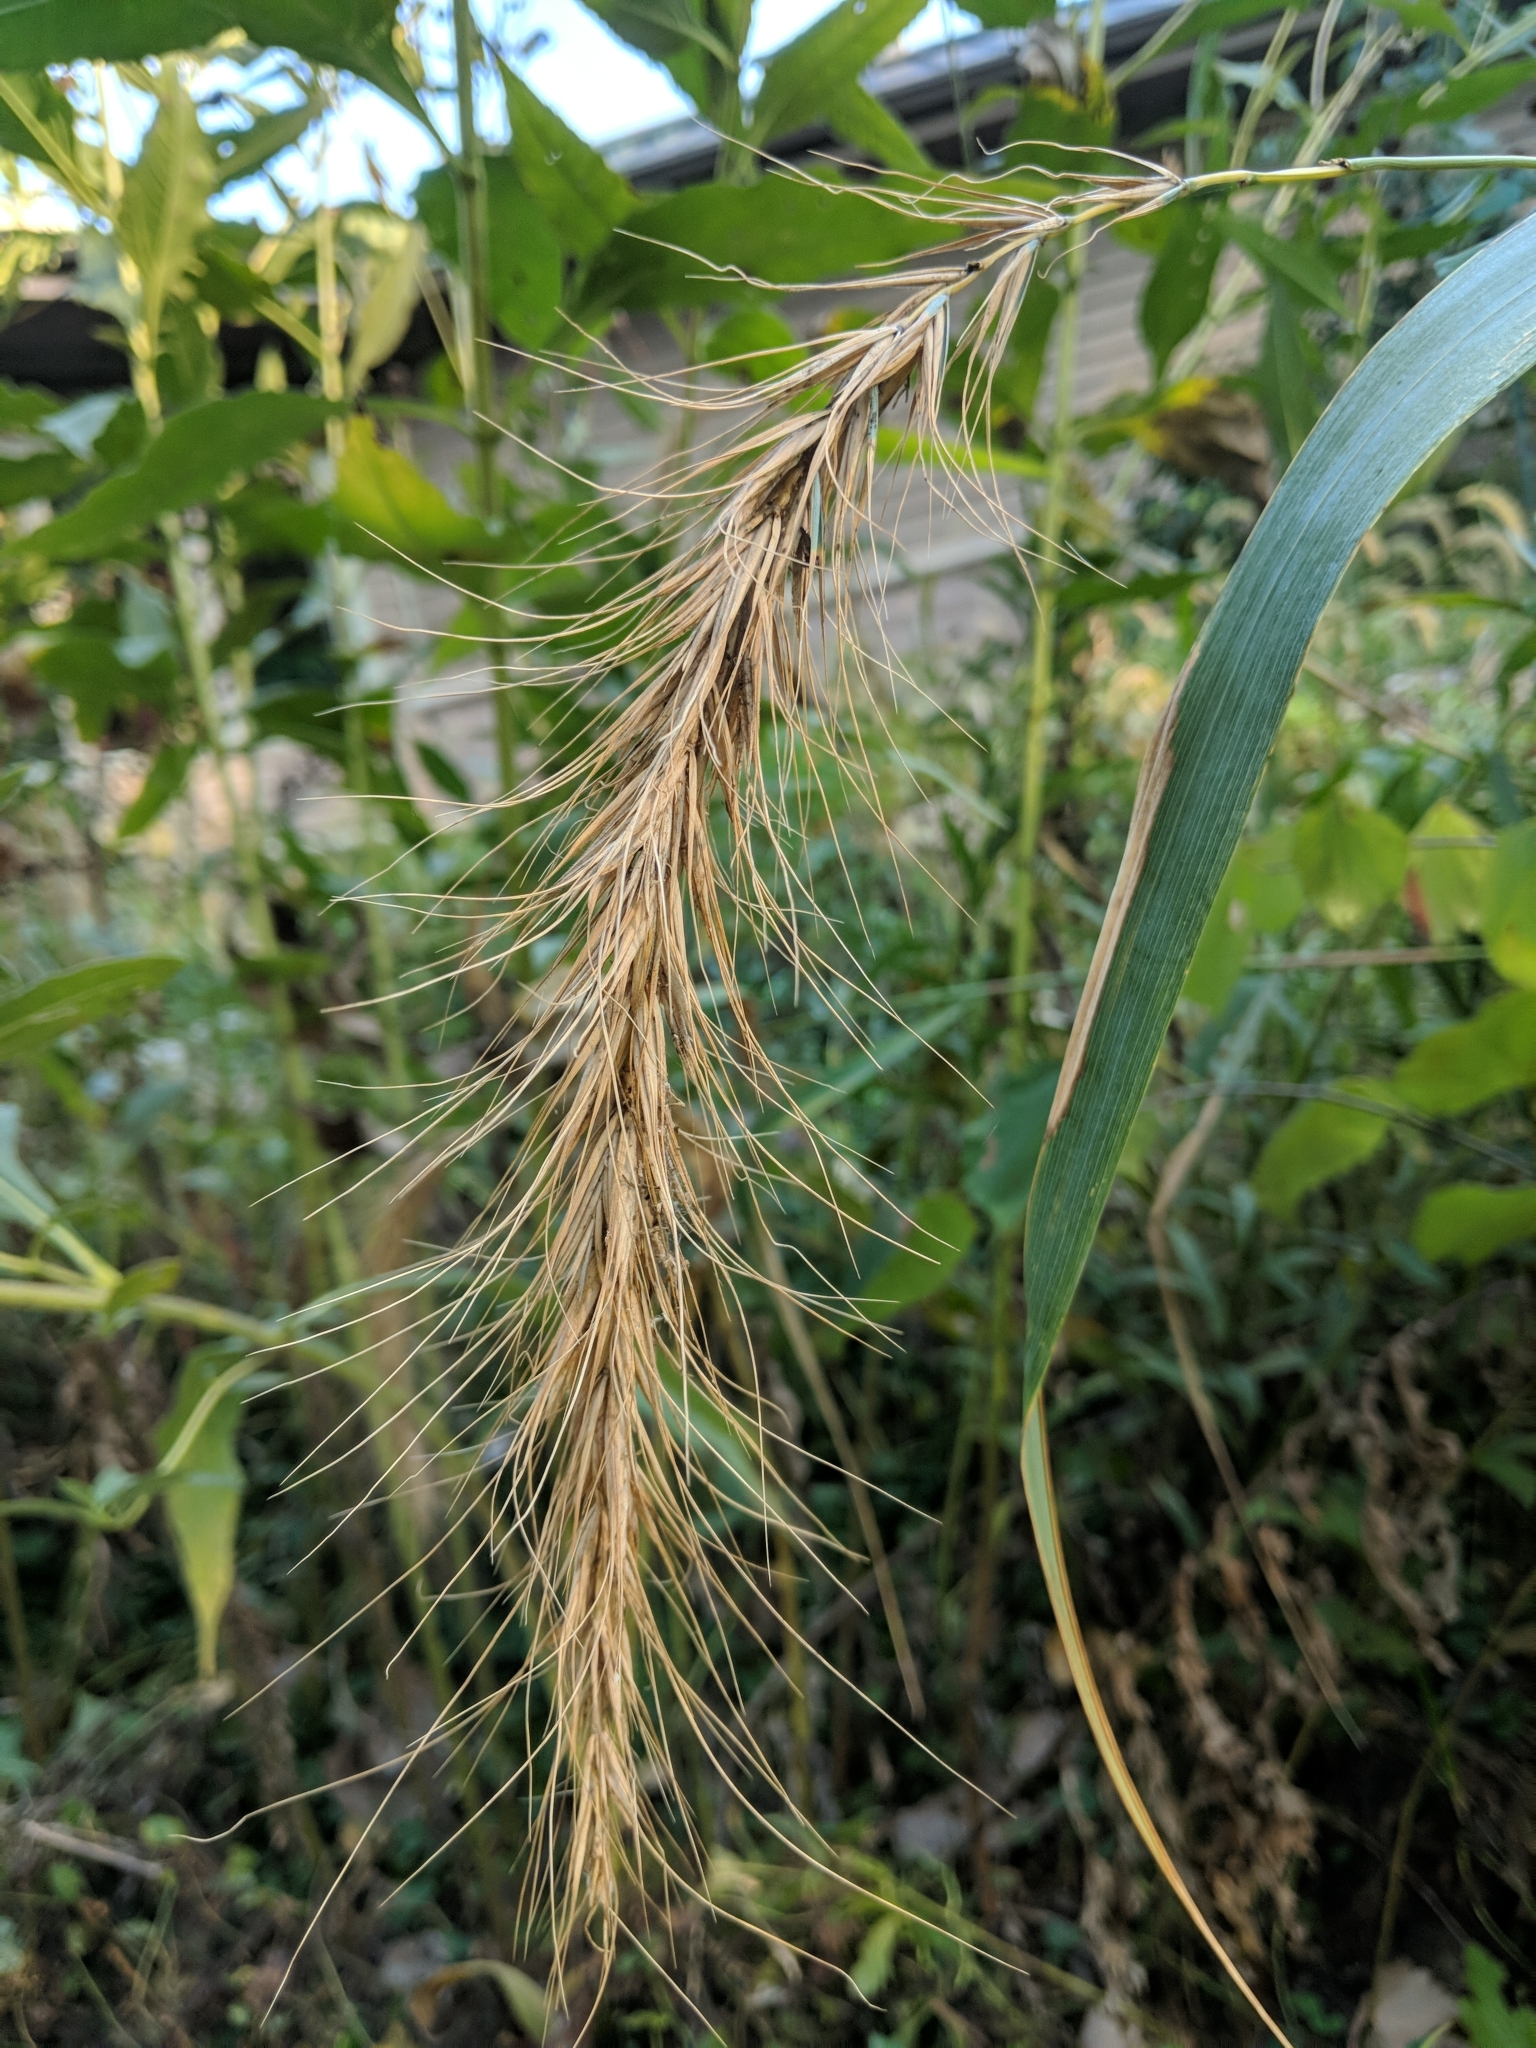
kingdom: Plantae
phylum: Tracheophyta
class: Liliopsida
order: Poales
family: Poaceae
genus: Elymus
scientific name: Elymus canadensis
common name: Canada wild rye
